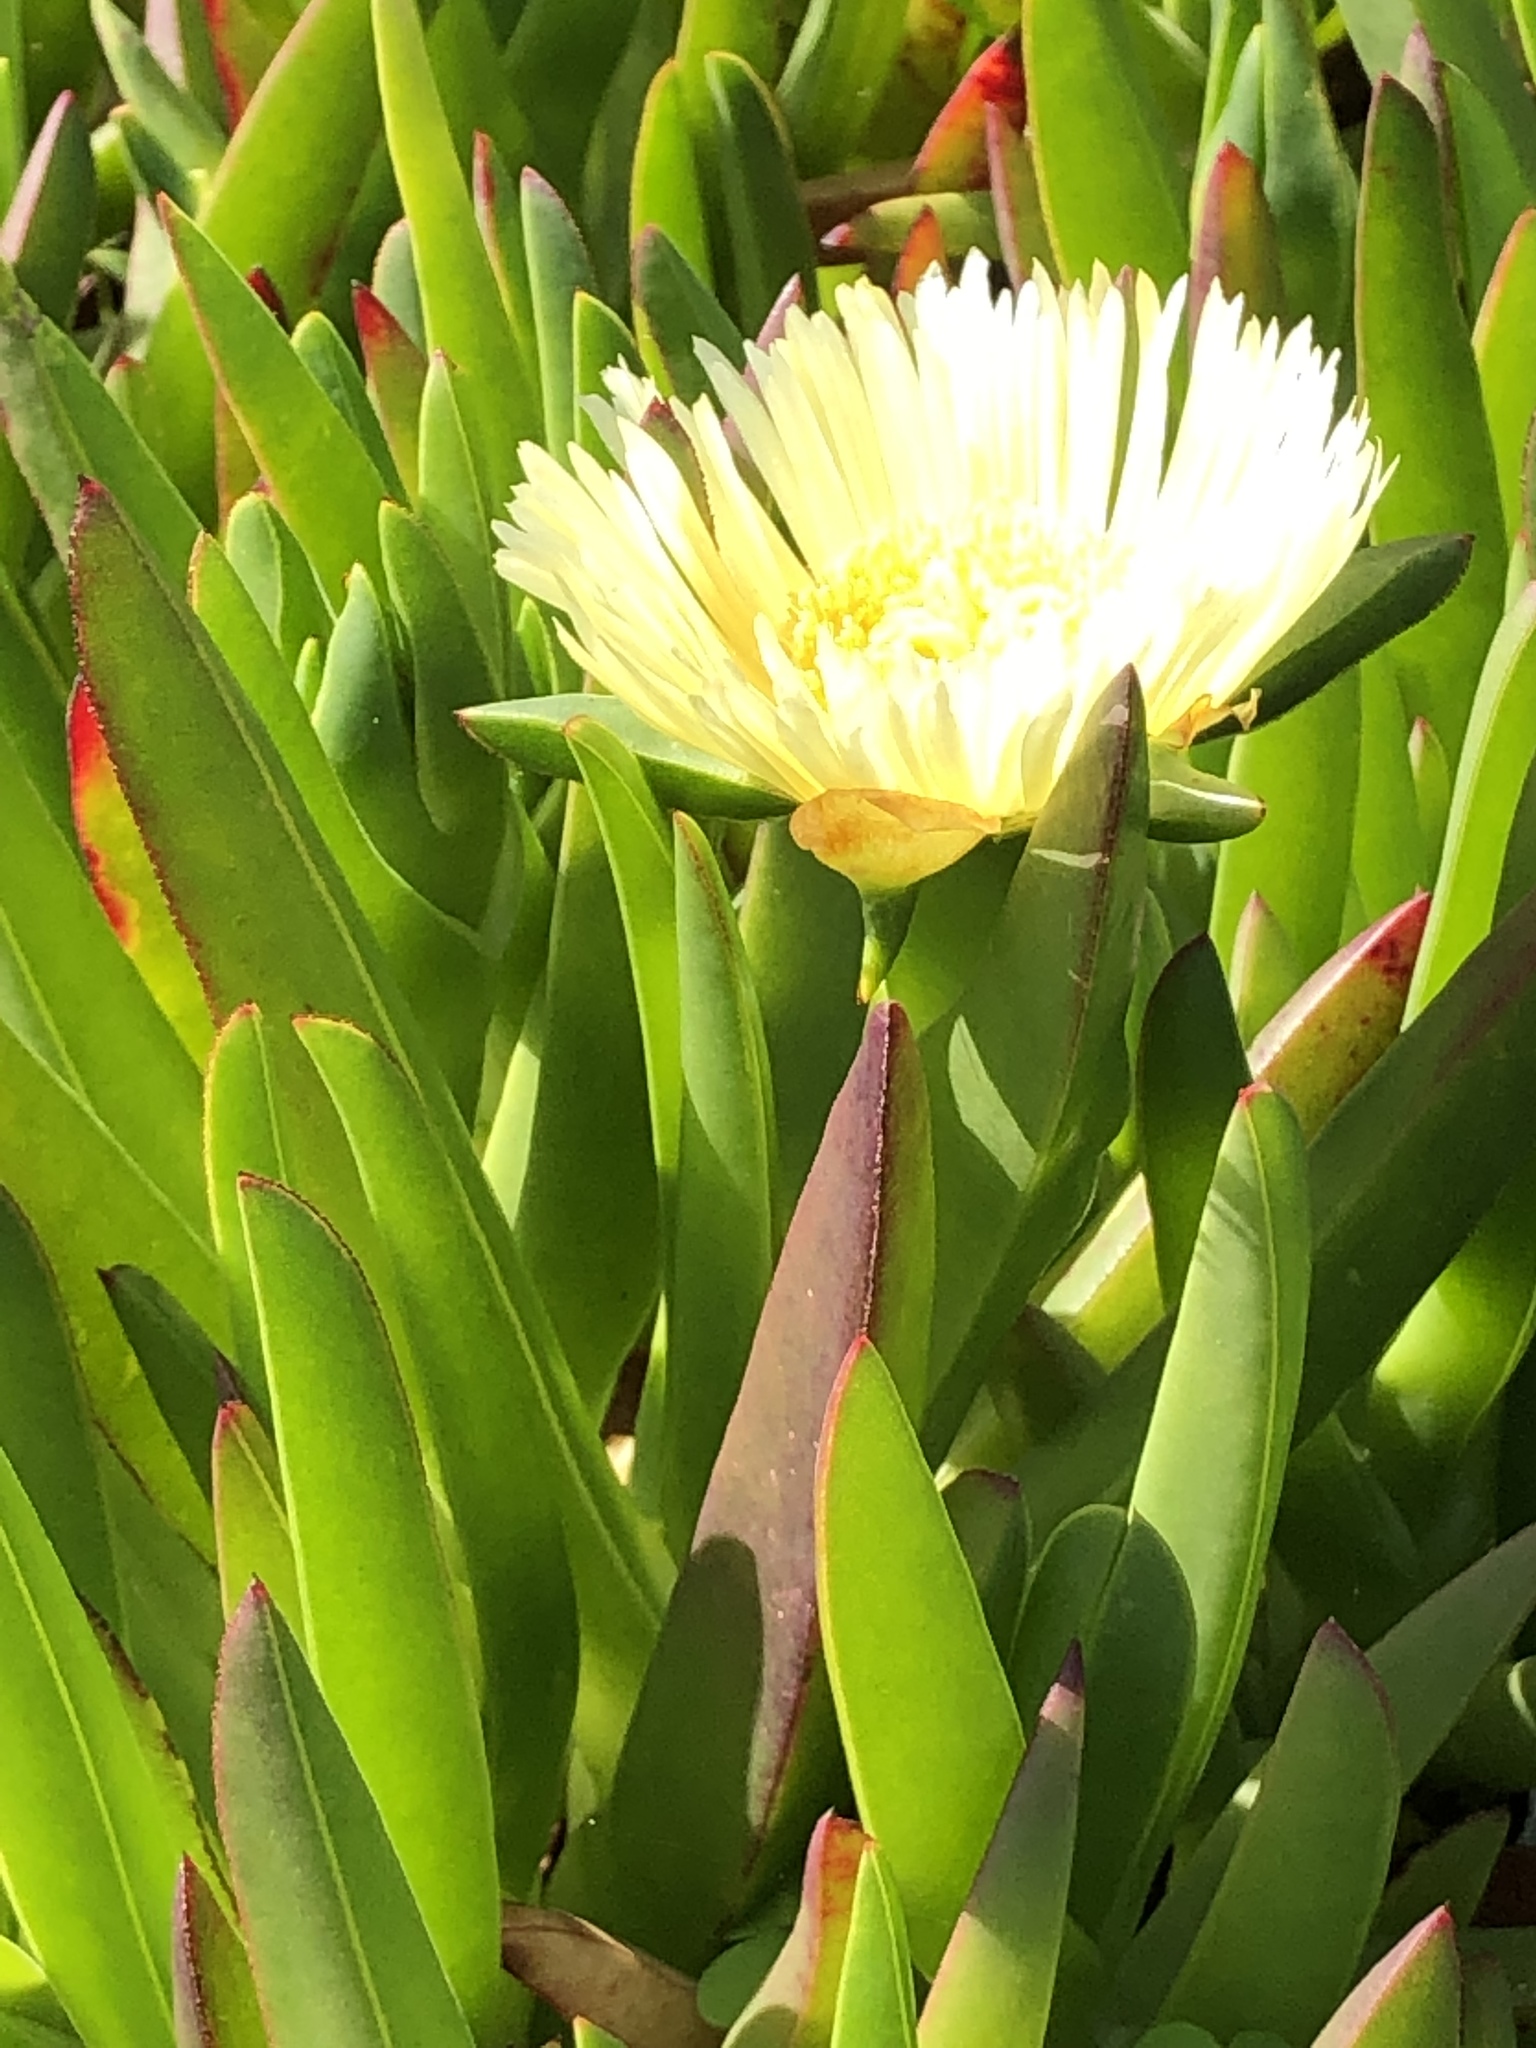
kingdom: Plantae
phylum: Tracheophyta
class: Magnoliopsida
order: Caryophyllales
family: Aizoaceae
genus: Carpobrotus
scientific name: Carpobrotus edulis
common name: Hottentot-fig
